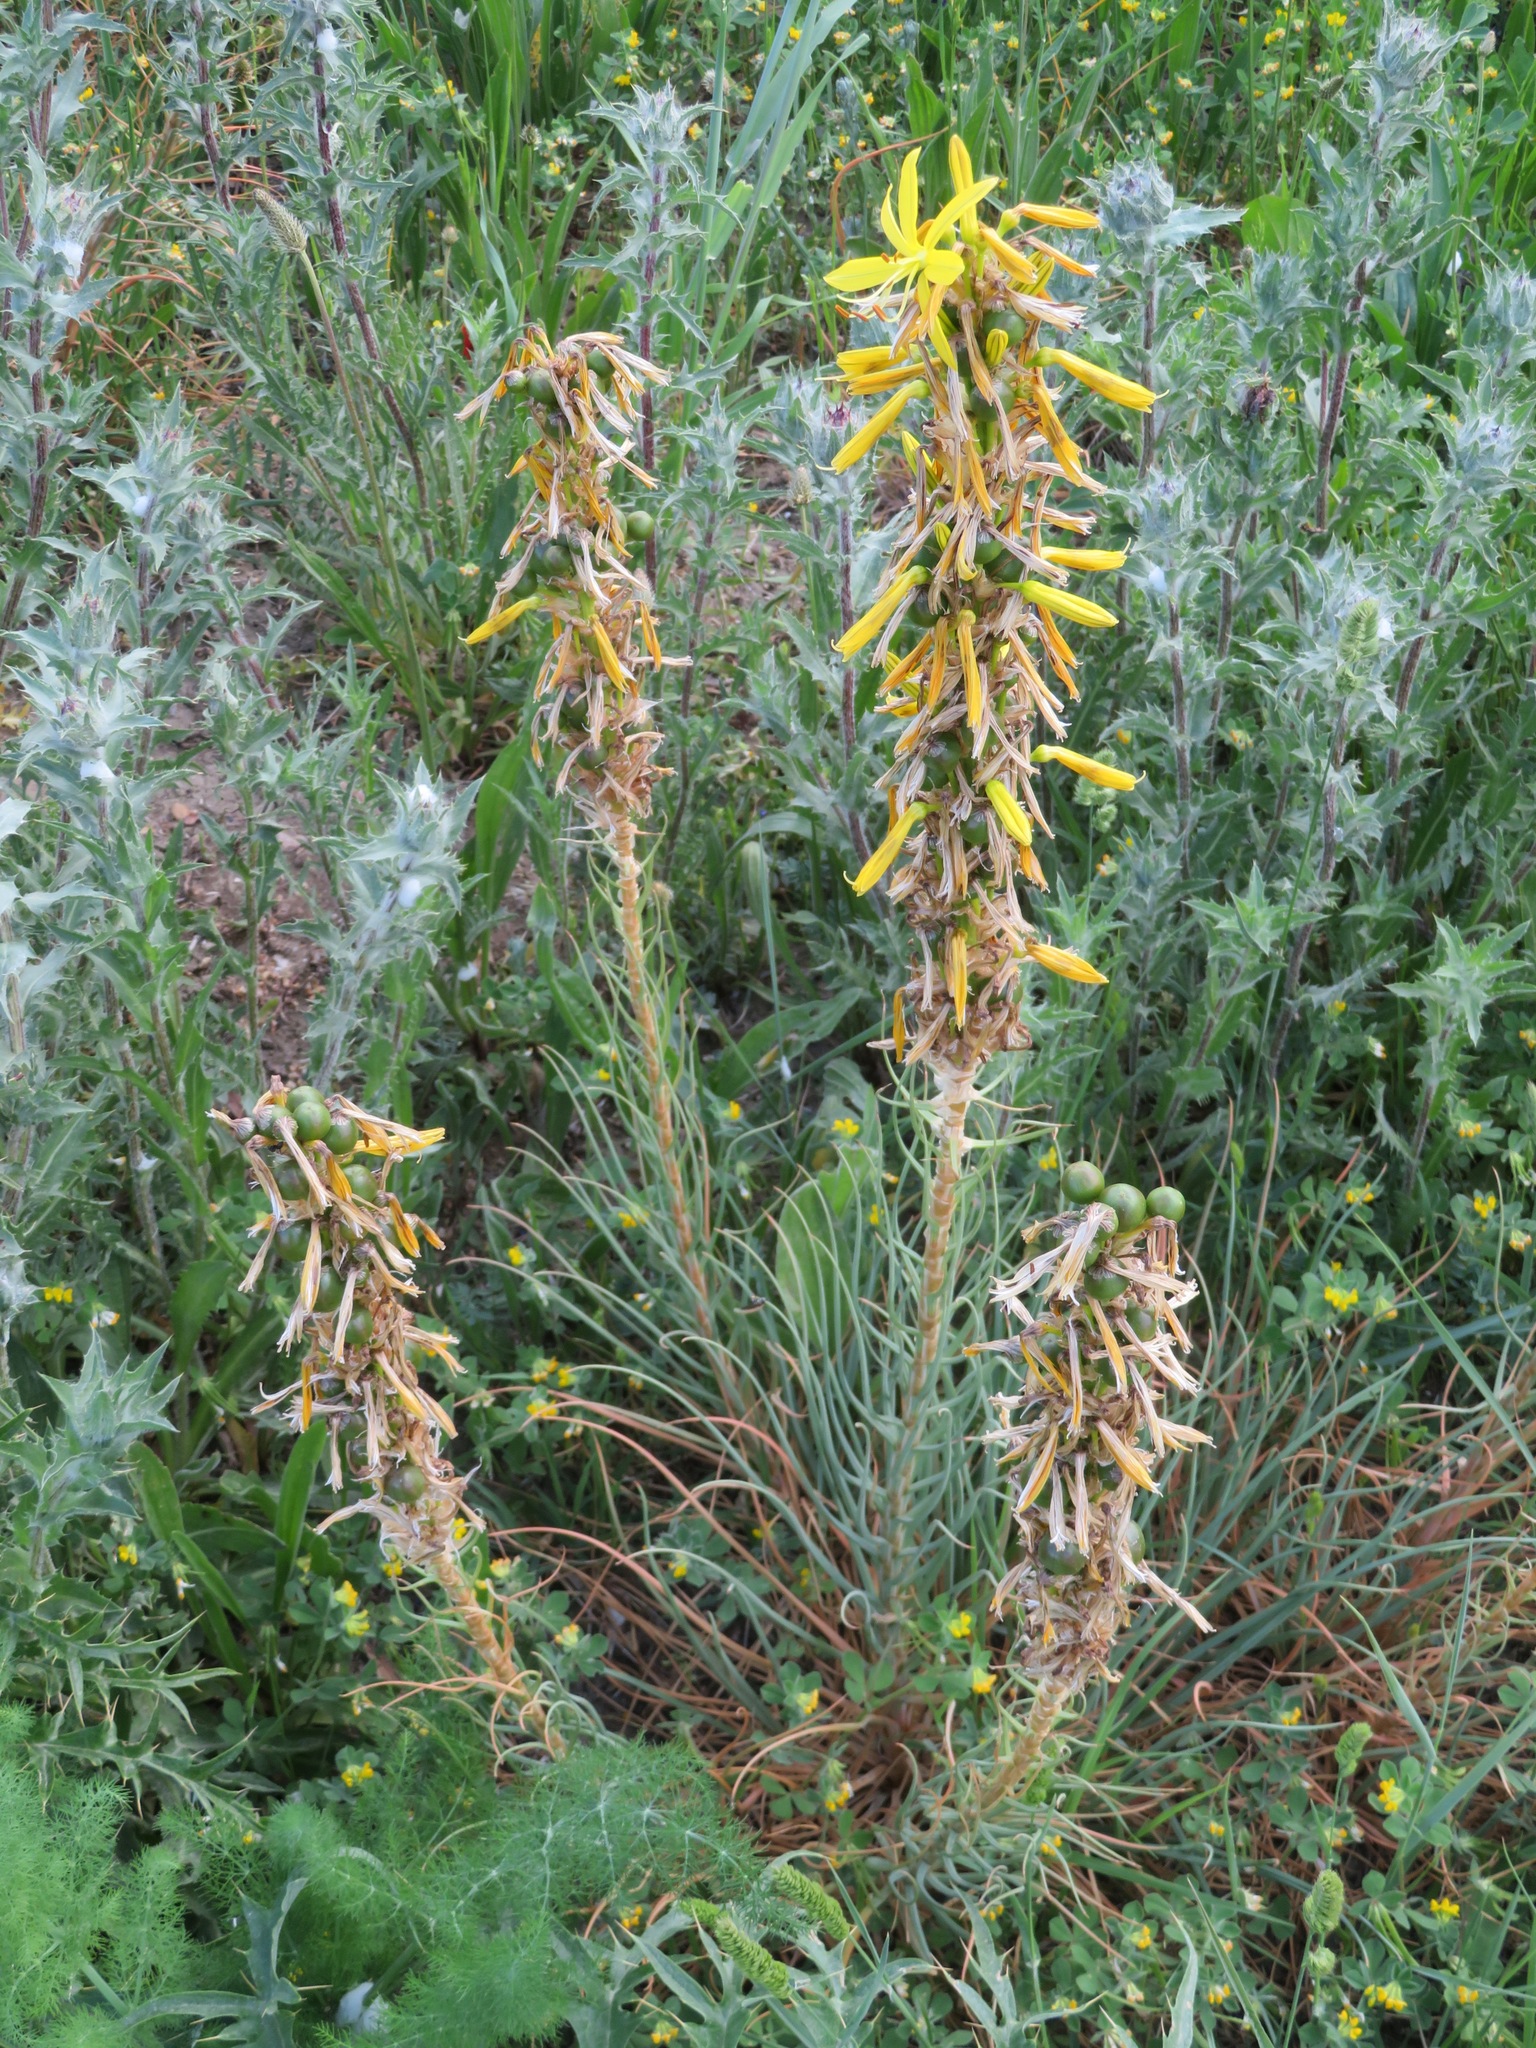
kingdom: Plantae
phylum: Tracheophyta
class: Liliopsida
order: Asparagales
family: Asphodelaceae
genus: Asphodeline
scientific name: Asphodeline lutea
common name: Yellow asphodel
